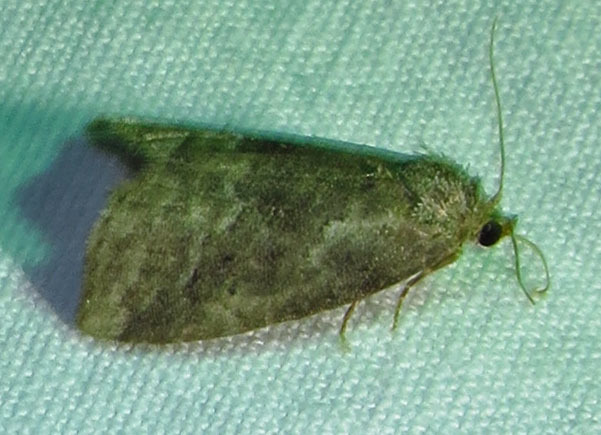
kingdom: Animalia
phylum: Arthropoda
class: Insecta
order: Lepidoptera
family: Erebidae
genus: Hyperstrotia
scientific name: Hyperstrotia nana
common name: White-lined graylet
